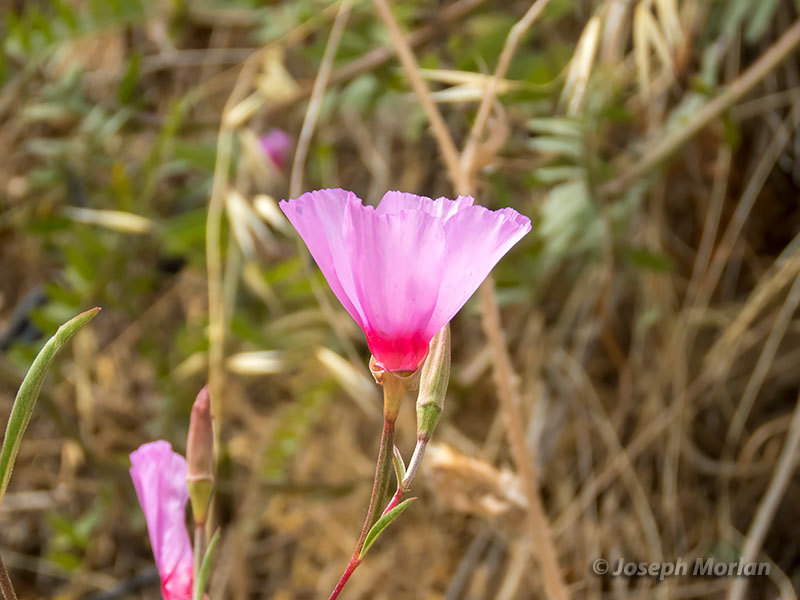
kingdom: Plantae
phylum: Tracheophyta
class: Magnoliopsida
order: Myrtales
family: Onagraceae
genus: Clarkia
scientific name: Clarkia rubicunda
